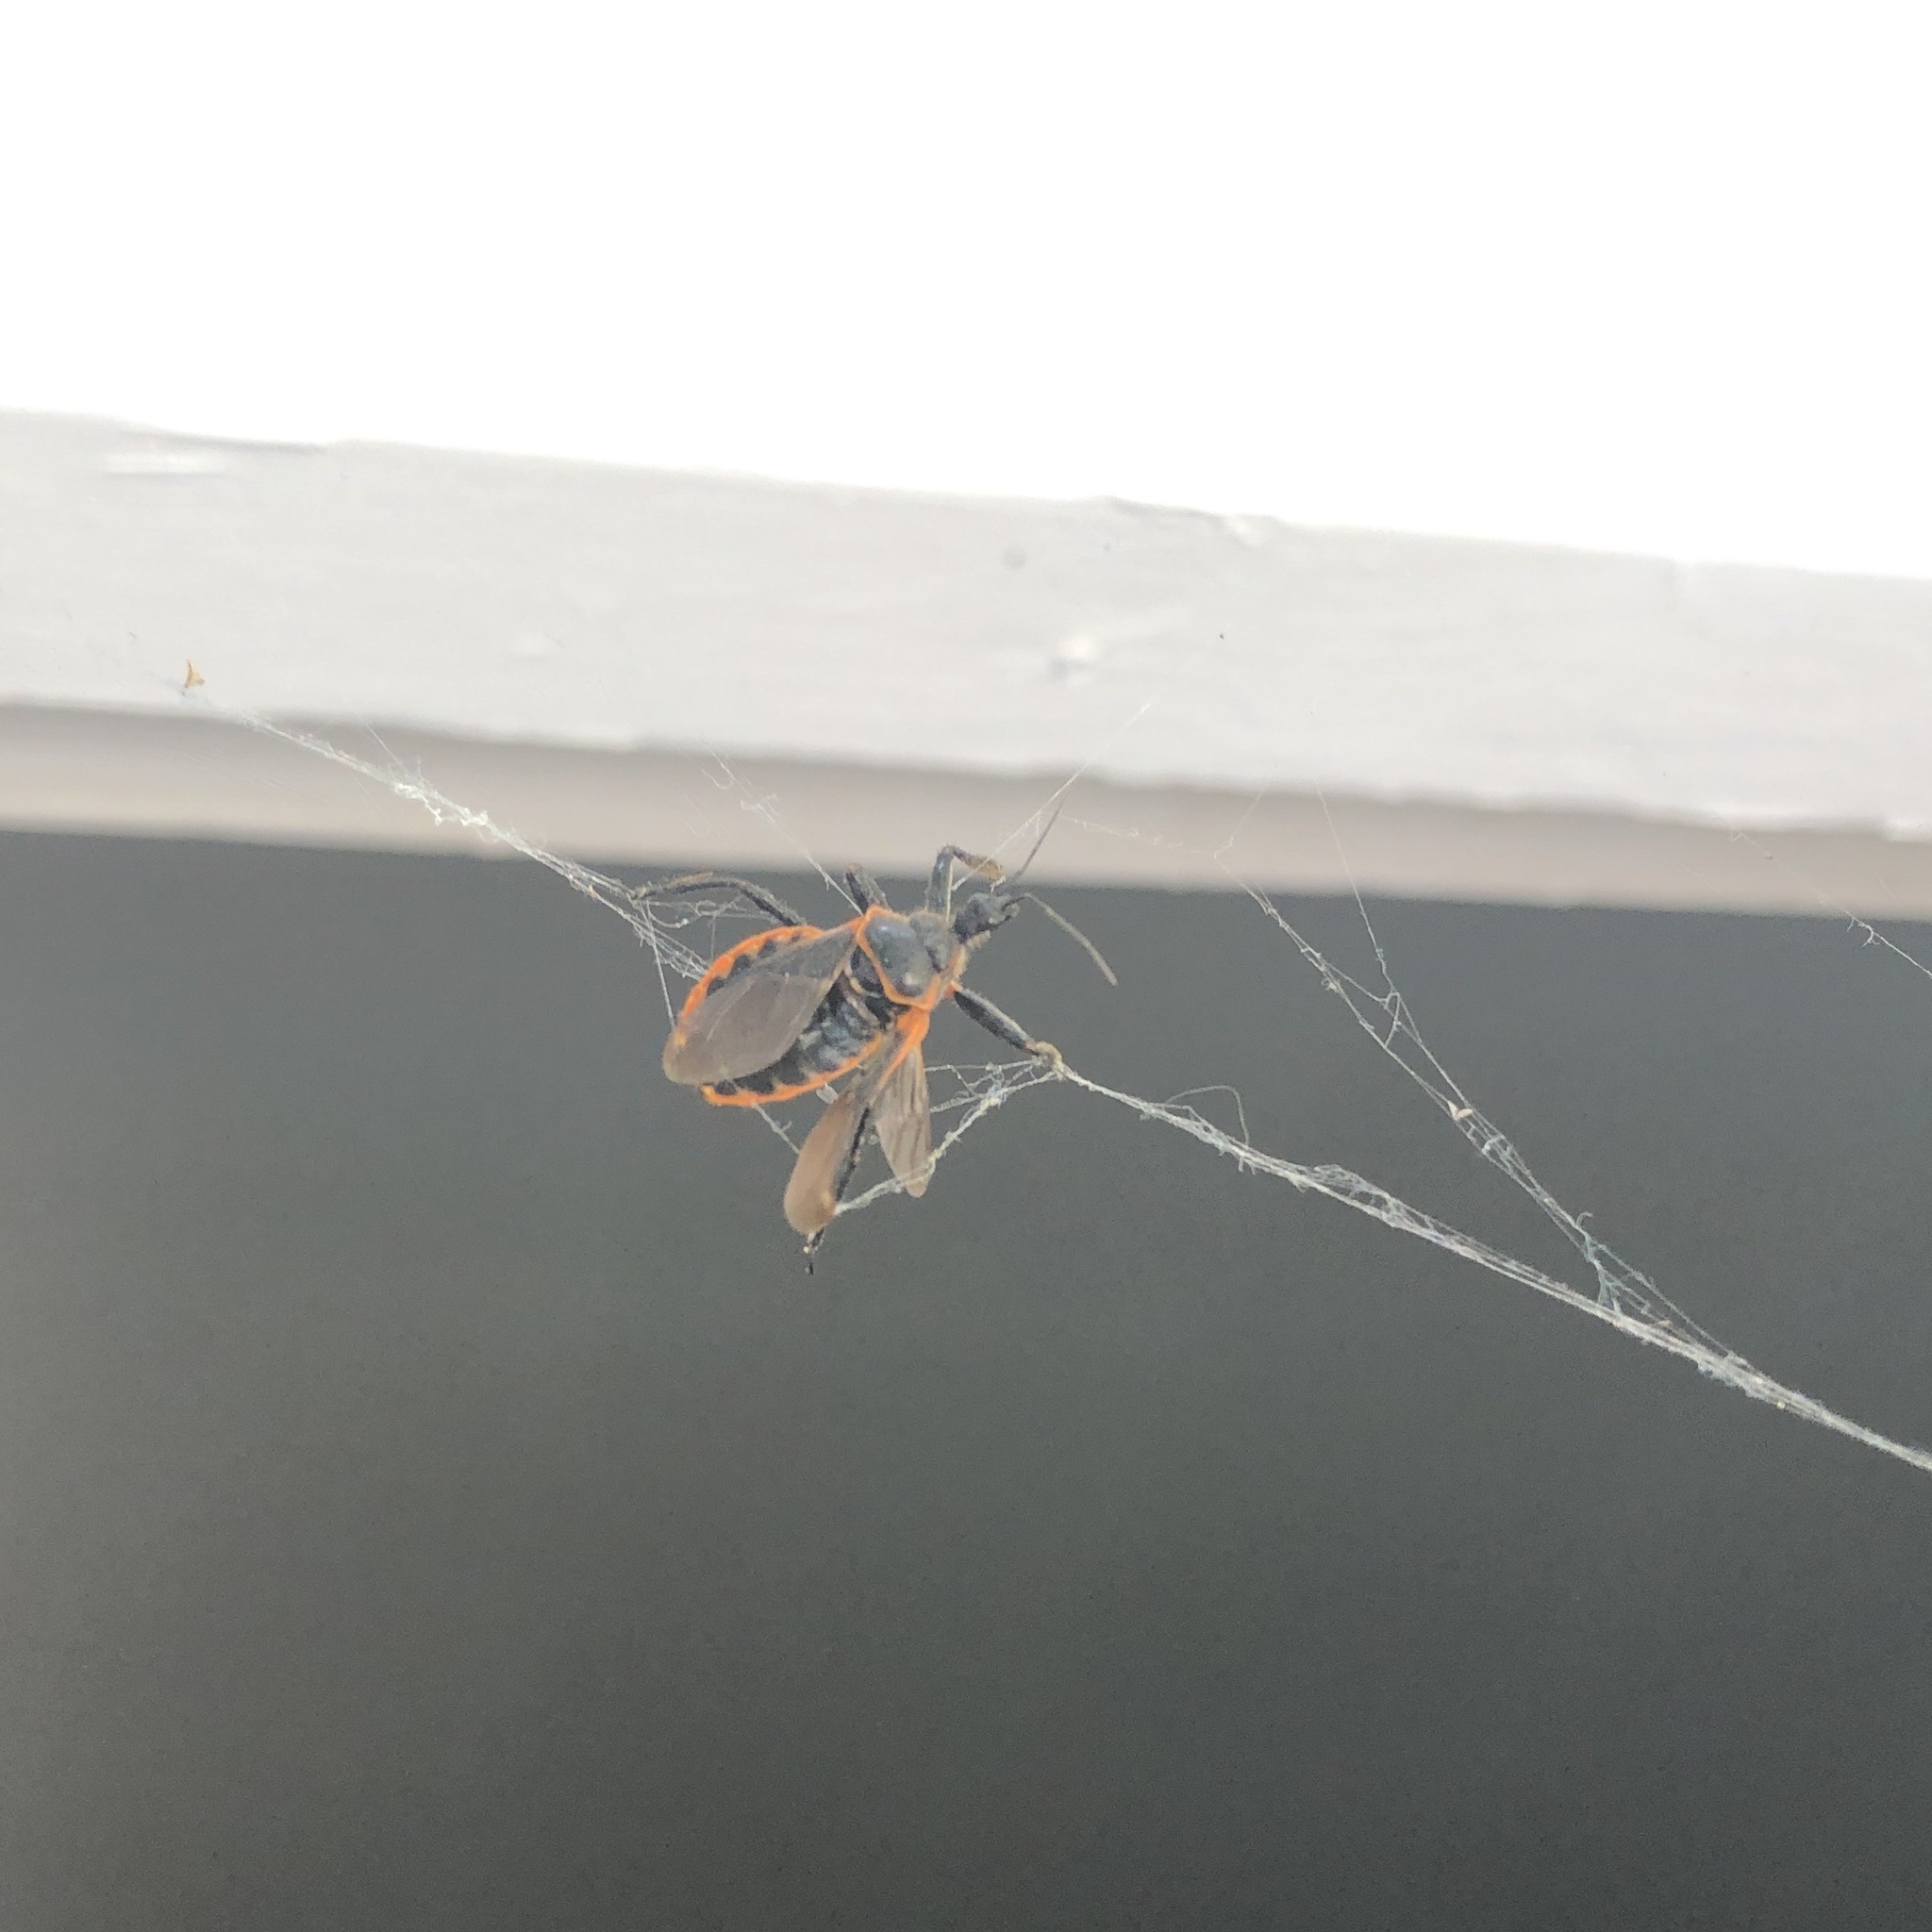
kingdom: Animalia
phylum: Arthropoda
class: Insecta
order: Hemiptera
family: Reduviidae
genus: Apiomerus
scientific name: Apiomerus crassipes
